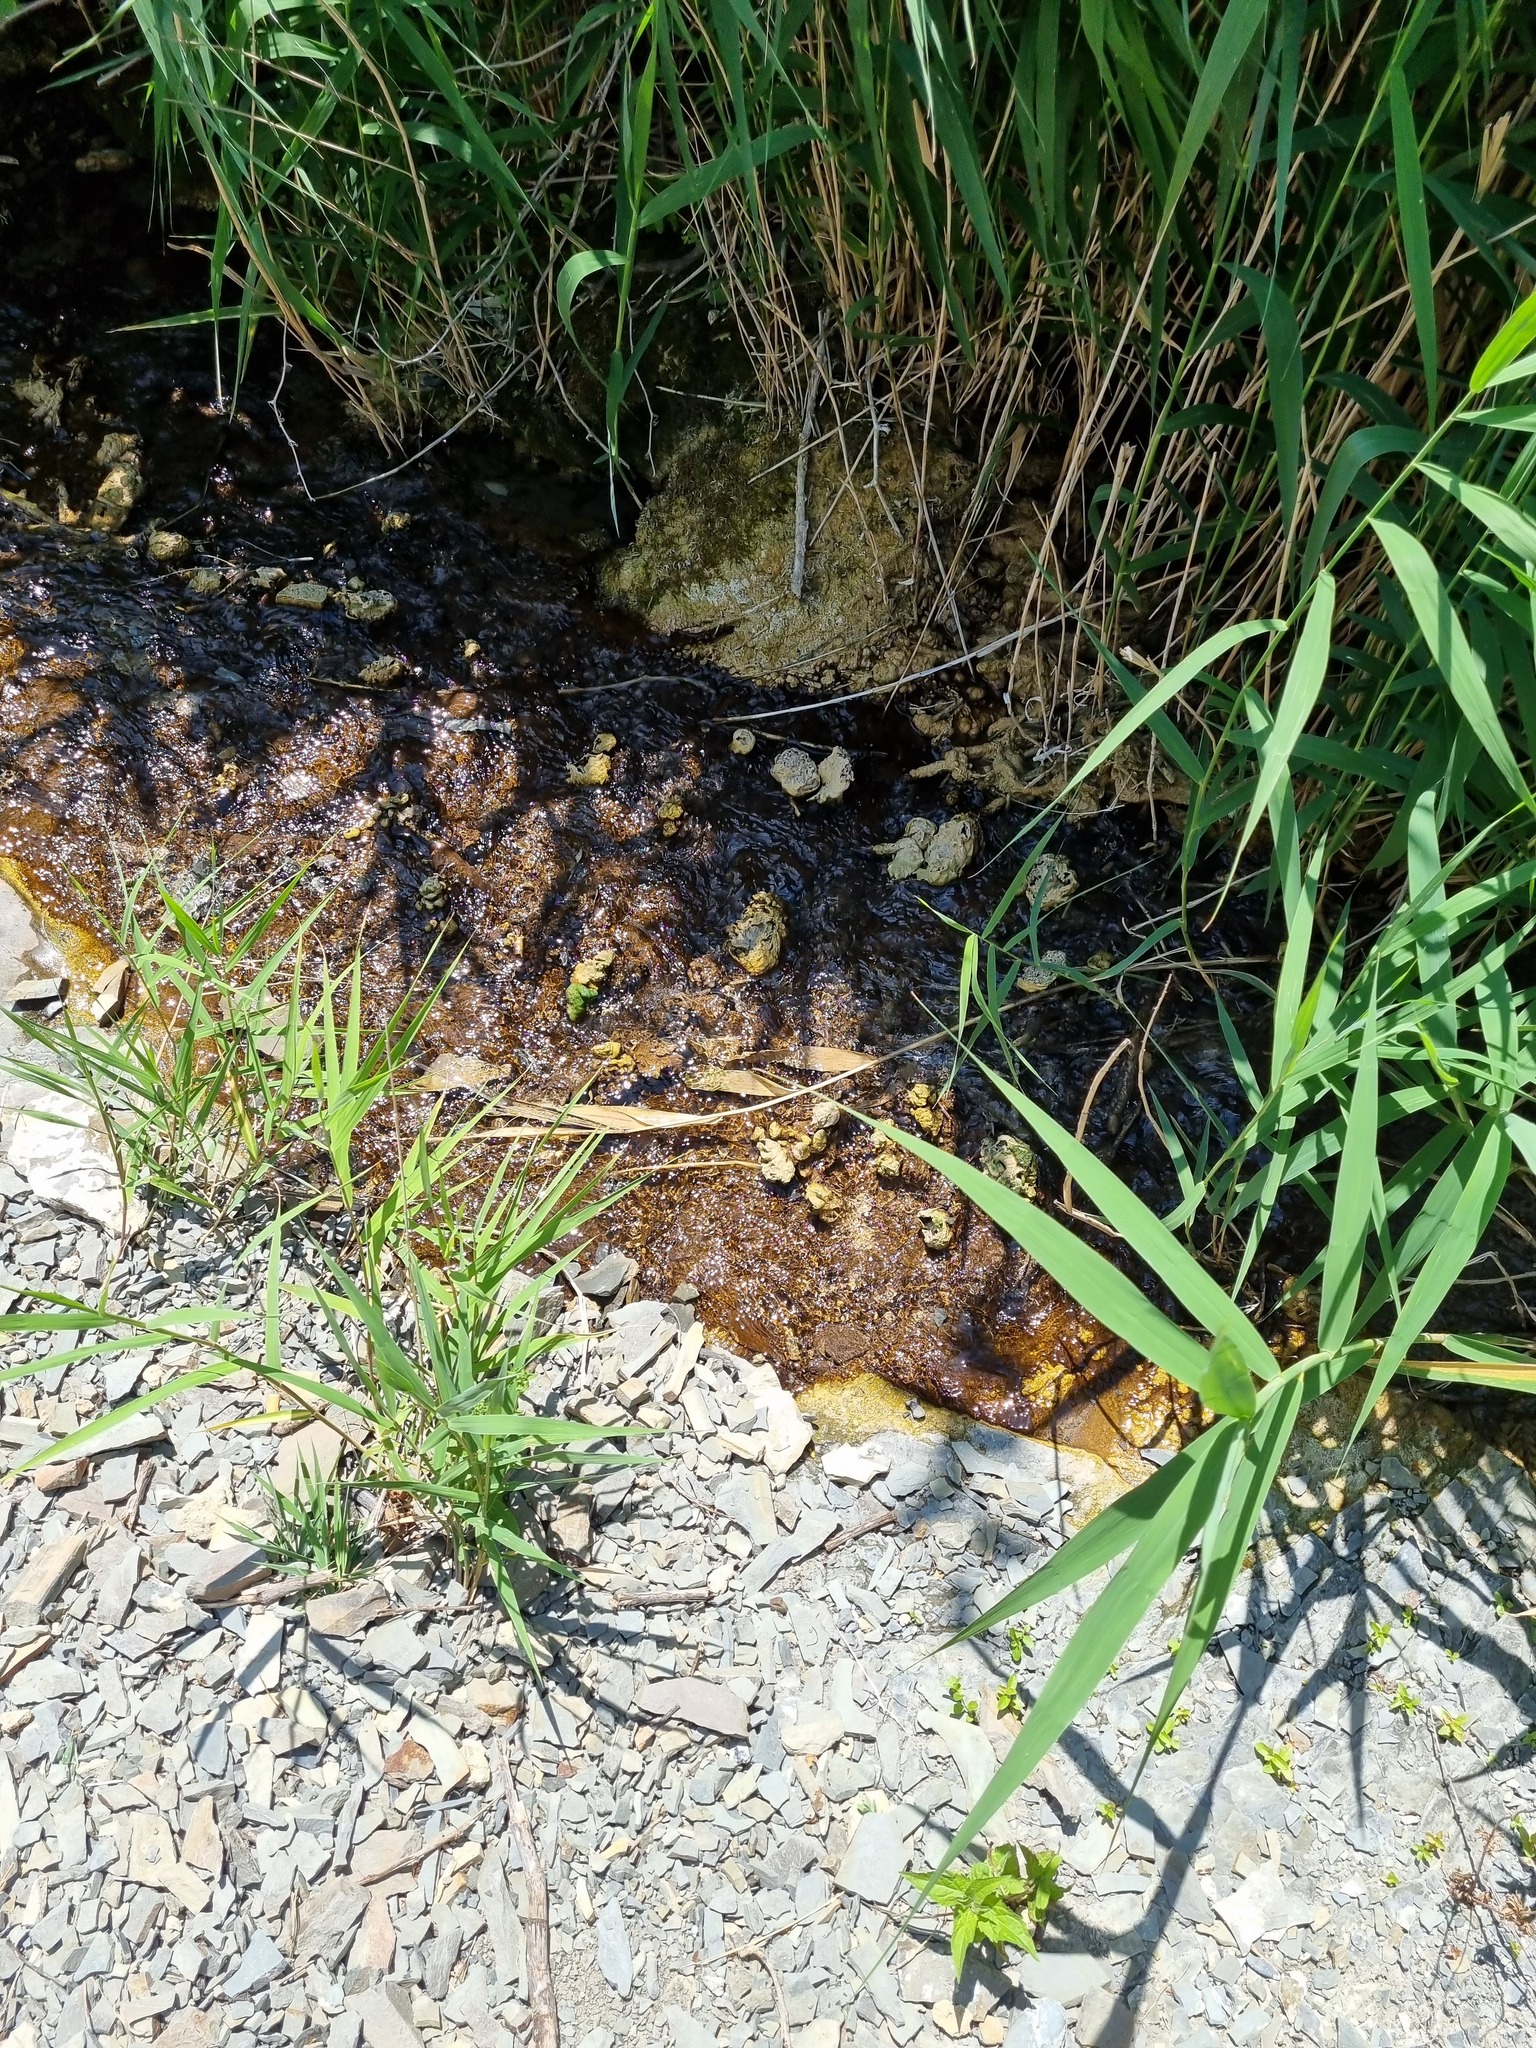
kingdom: Plantae
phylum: Tracheophyta
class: Liliopsida
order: Poales
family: Poaceae
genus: Phragmites
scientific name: Phragmites australis
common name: Common reed
